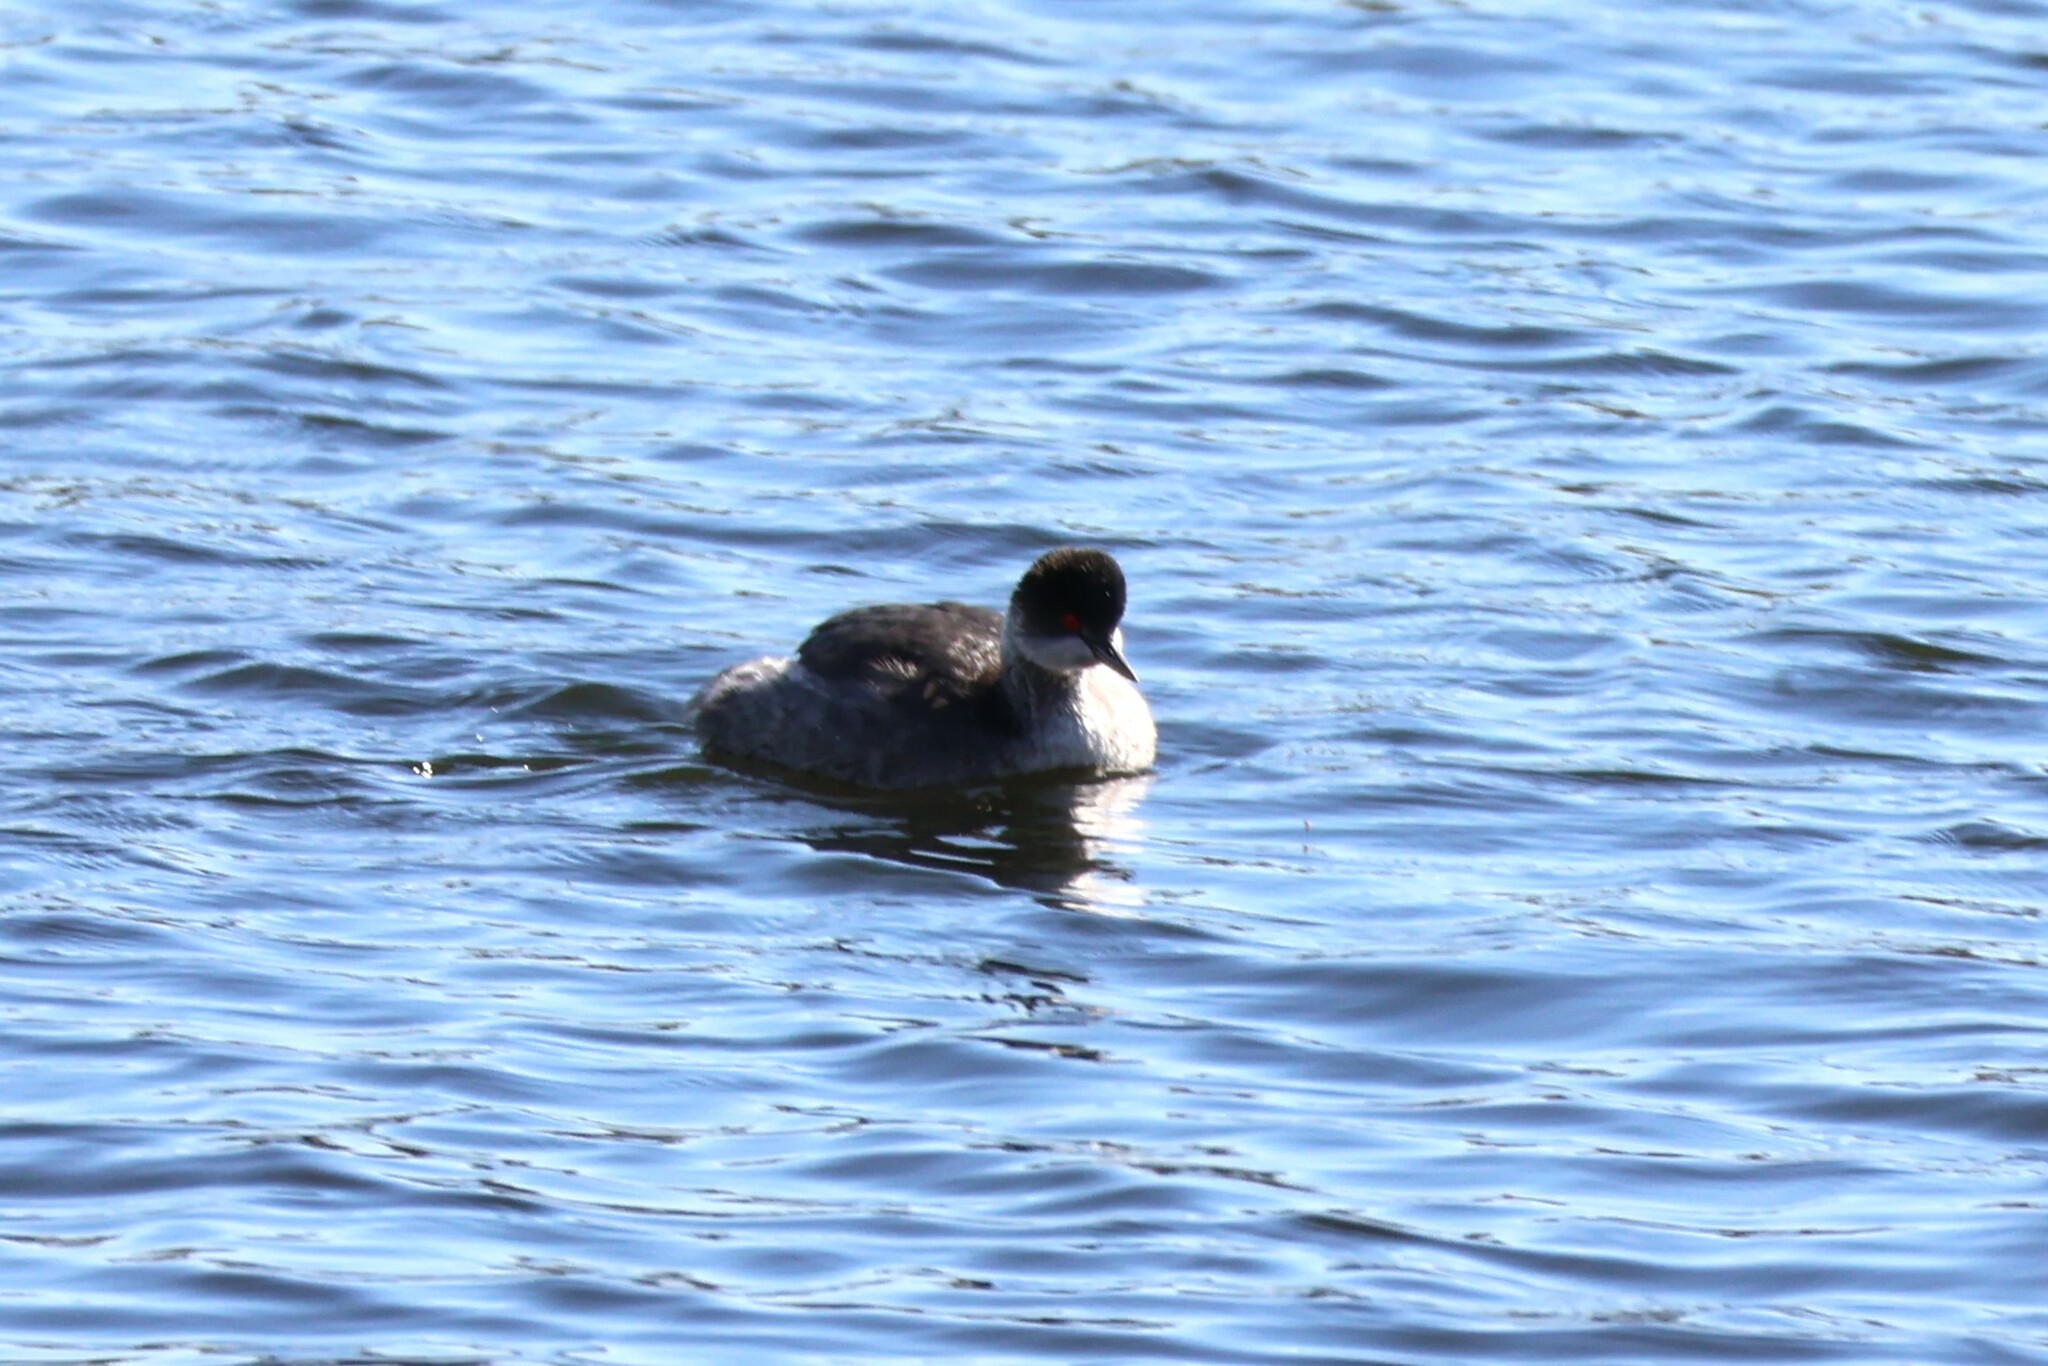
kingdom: Animalia
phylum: Chordata
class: Aves
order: Podicipediformes
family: Podicipedidae
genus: Podiceps
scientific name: Podiceps nigricollis
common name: Black-necked grebe
